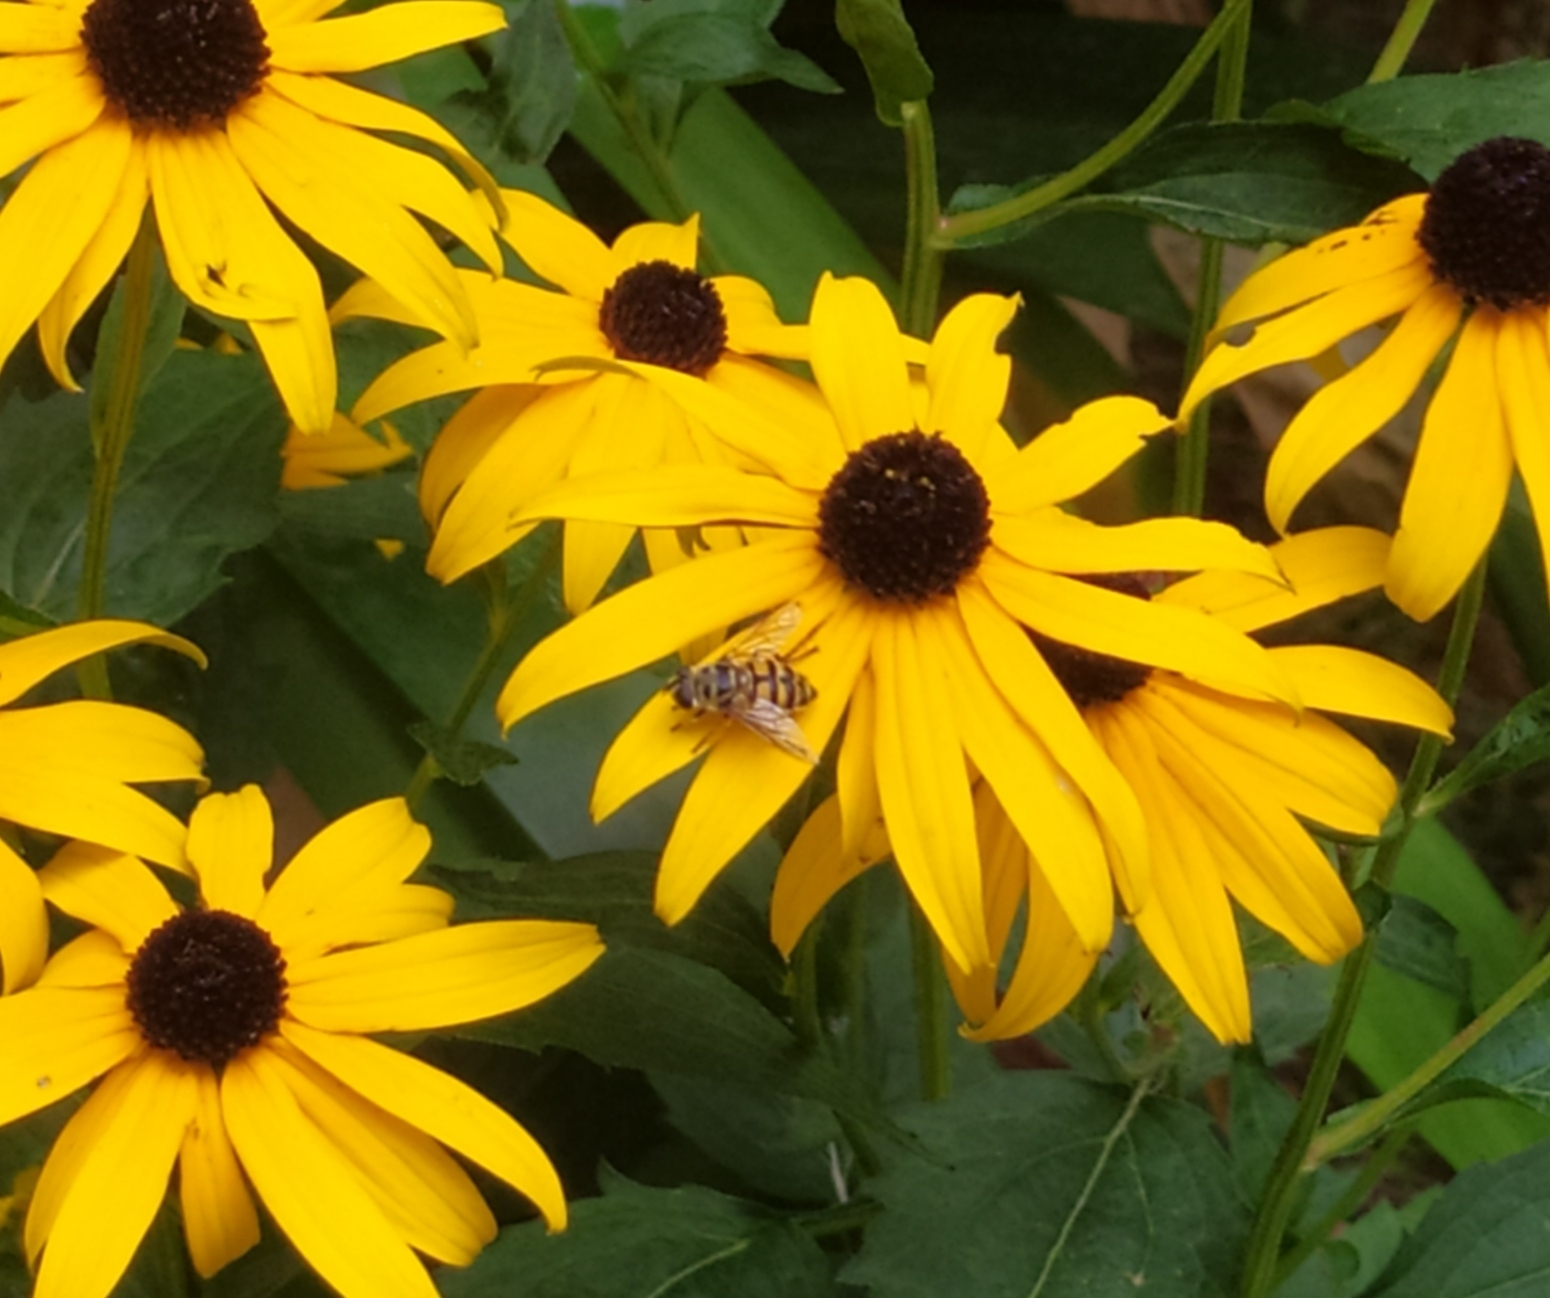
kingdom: Animalia
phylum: Arthropoda
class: Insecta
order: Diptera
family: Syrphidae
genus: Myathropa
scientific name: Myathropa florea
